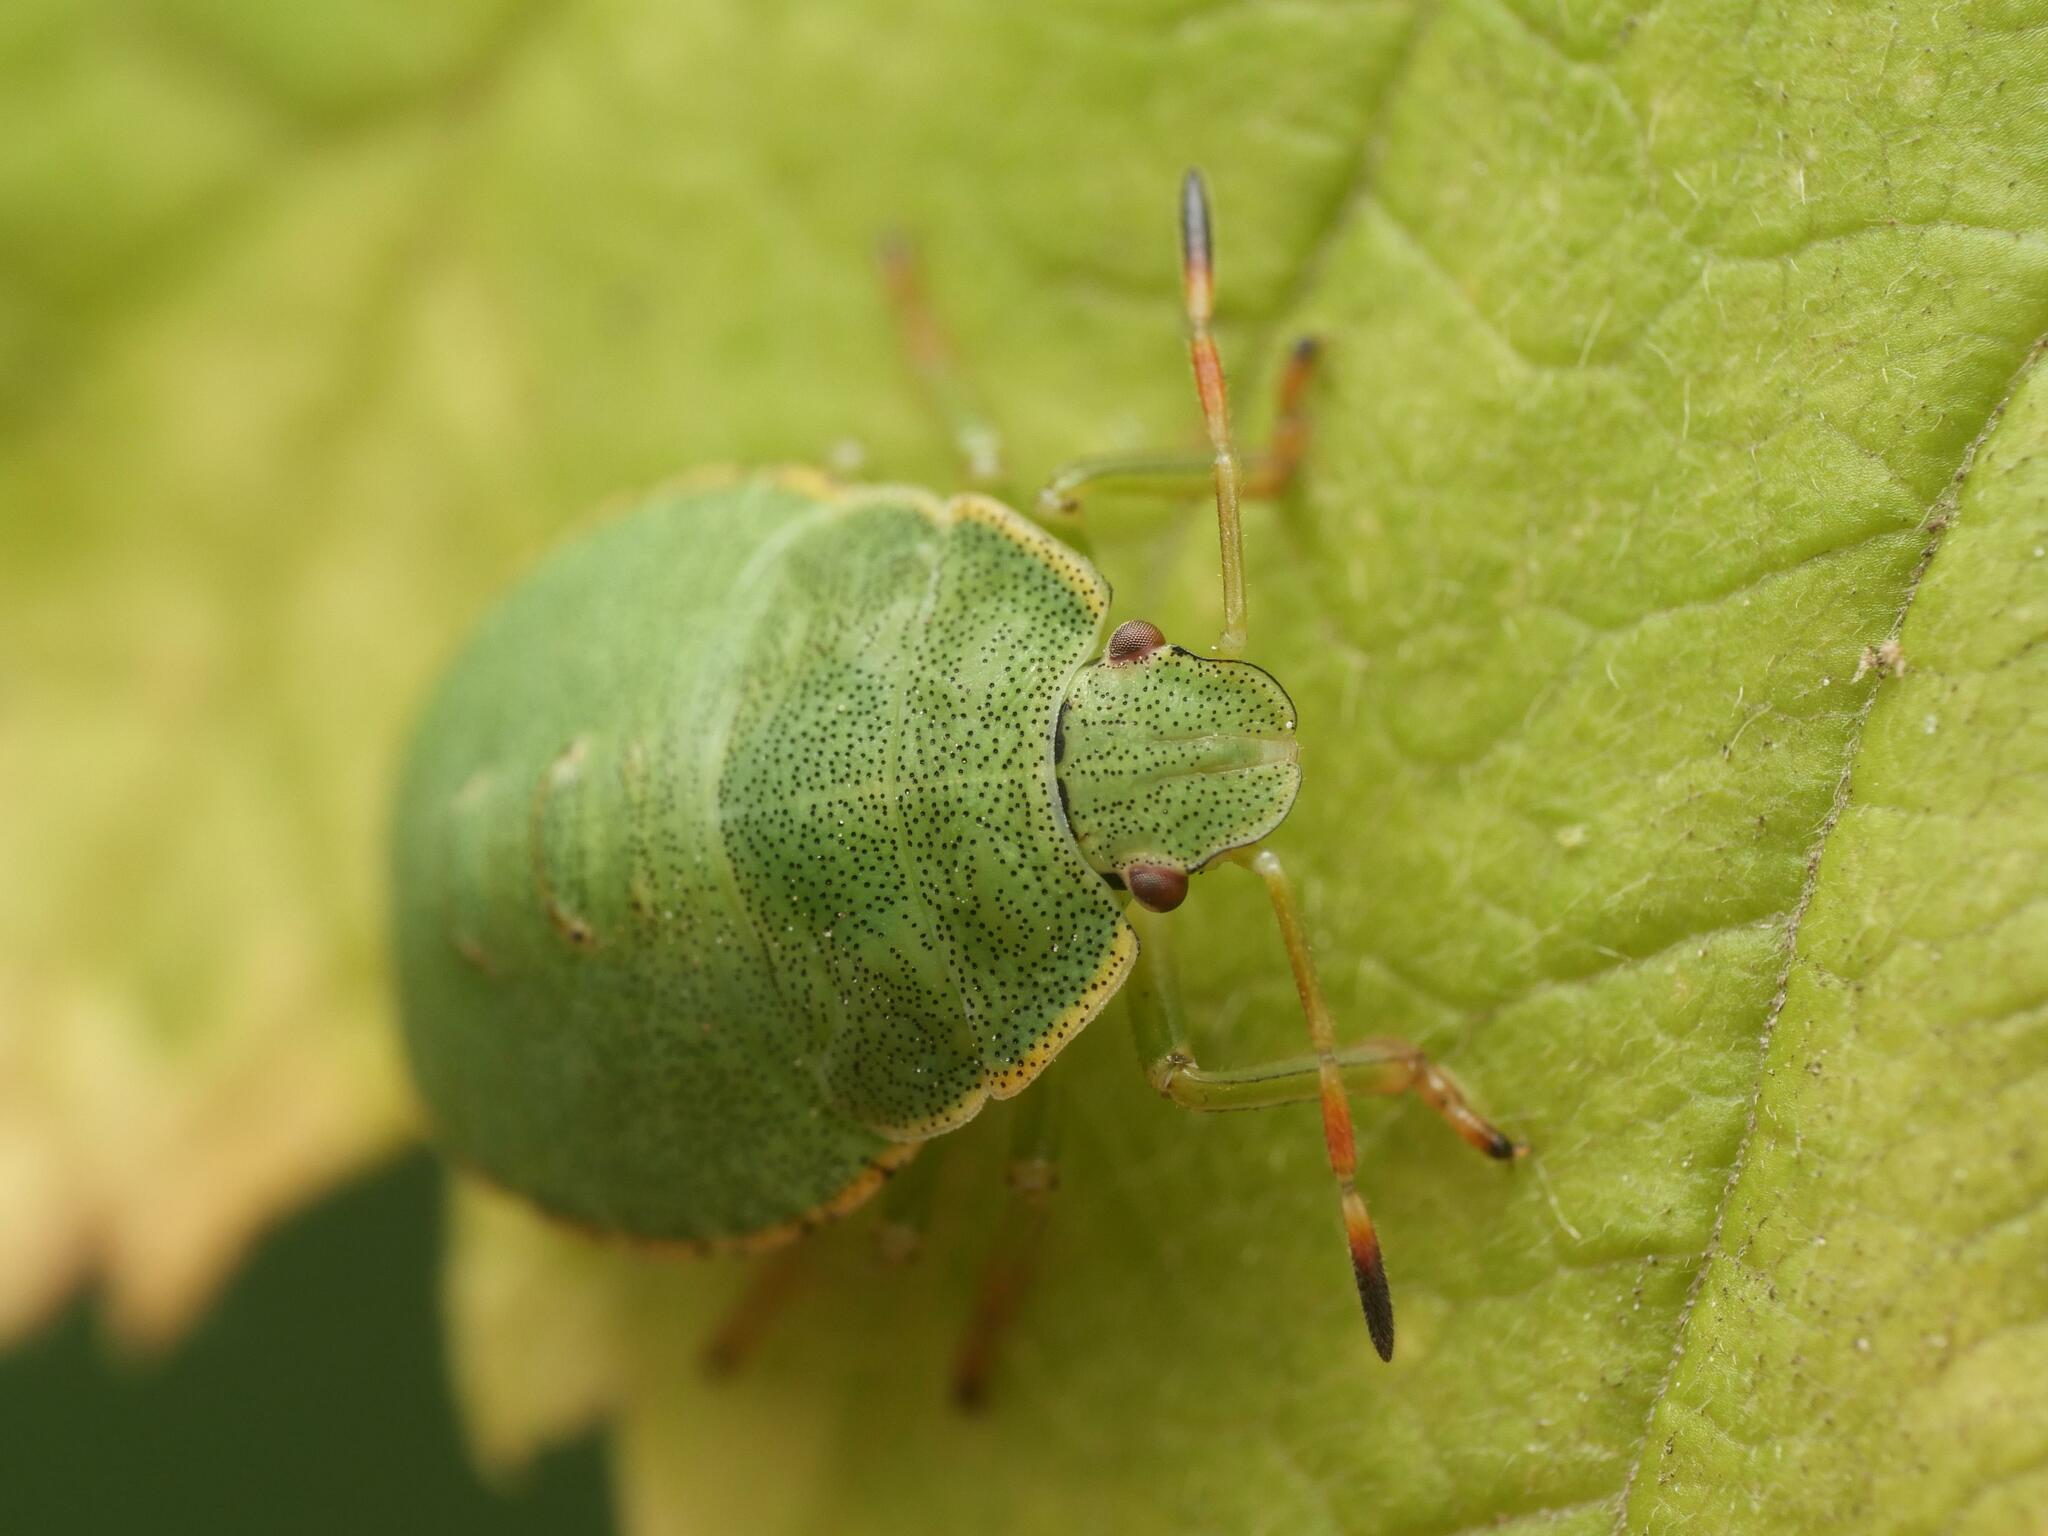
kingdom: Animalia
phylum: Arthropoda
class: Insecta
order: Hemiptera
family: Pentatomidae
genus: Palomena
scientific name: Palomena prasina
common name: Green shieldbug
